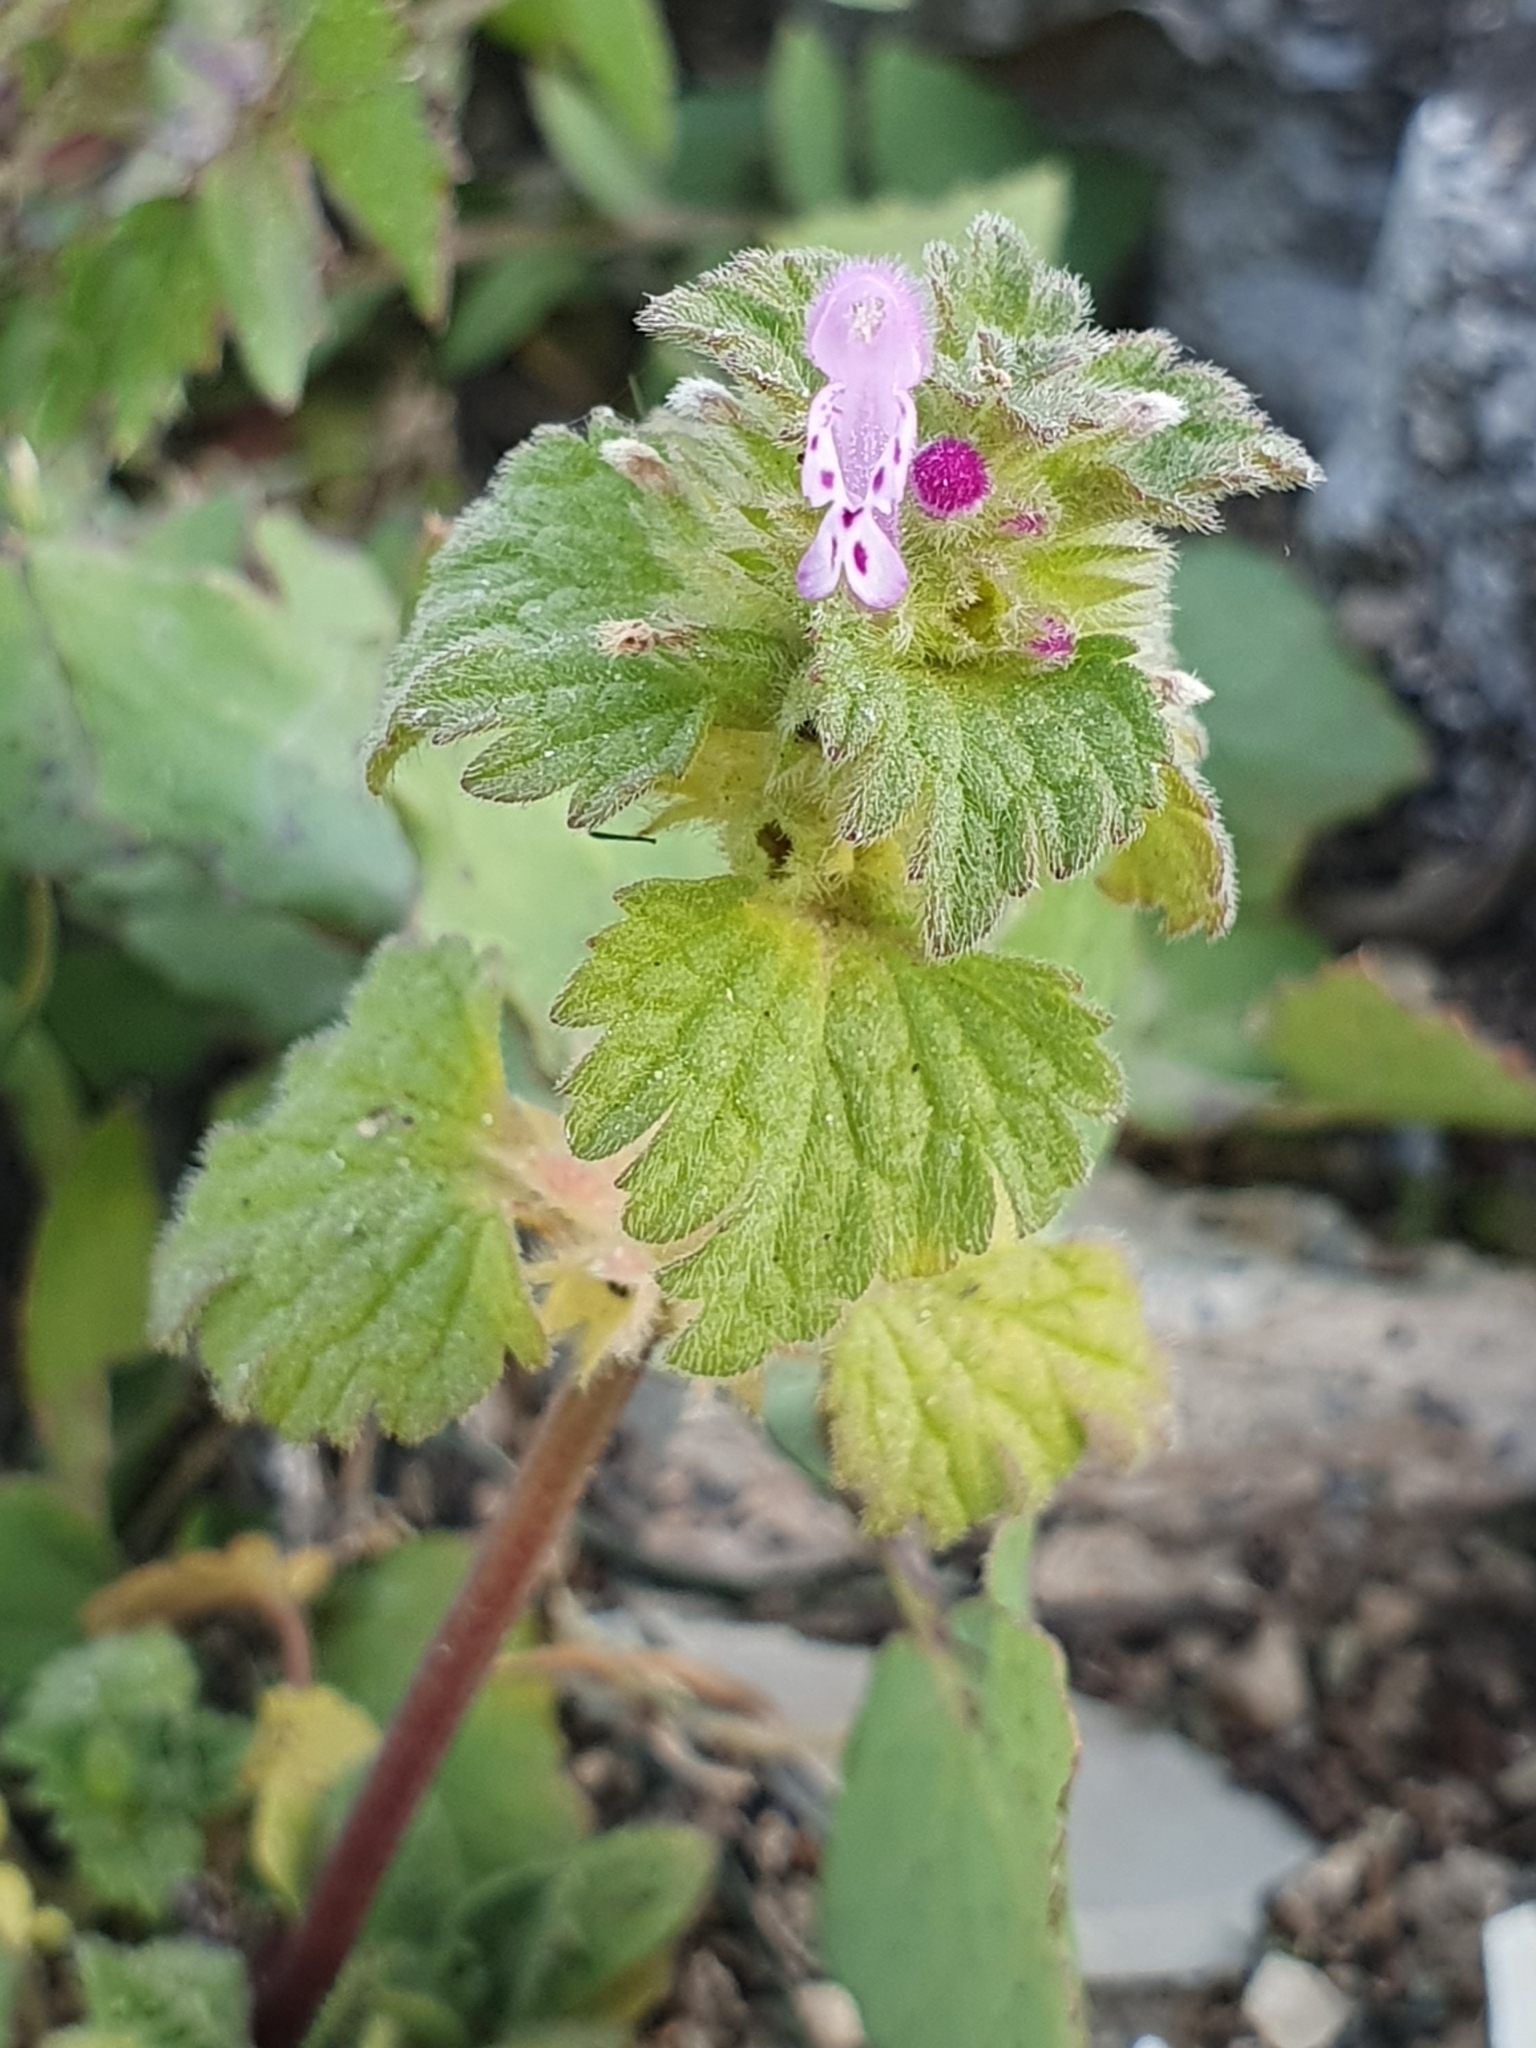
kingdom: Plantae
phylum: Tracheophyta
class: Magnoliopsida
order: Lamiales
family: Lamiaceae
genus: Lamium
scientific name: Lamium amplexicaule
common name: Henbit dead-nettle
